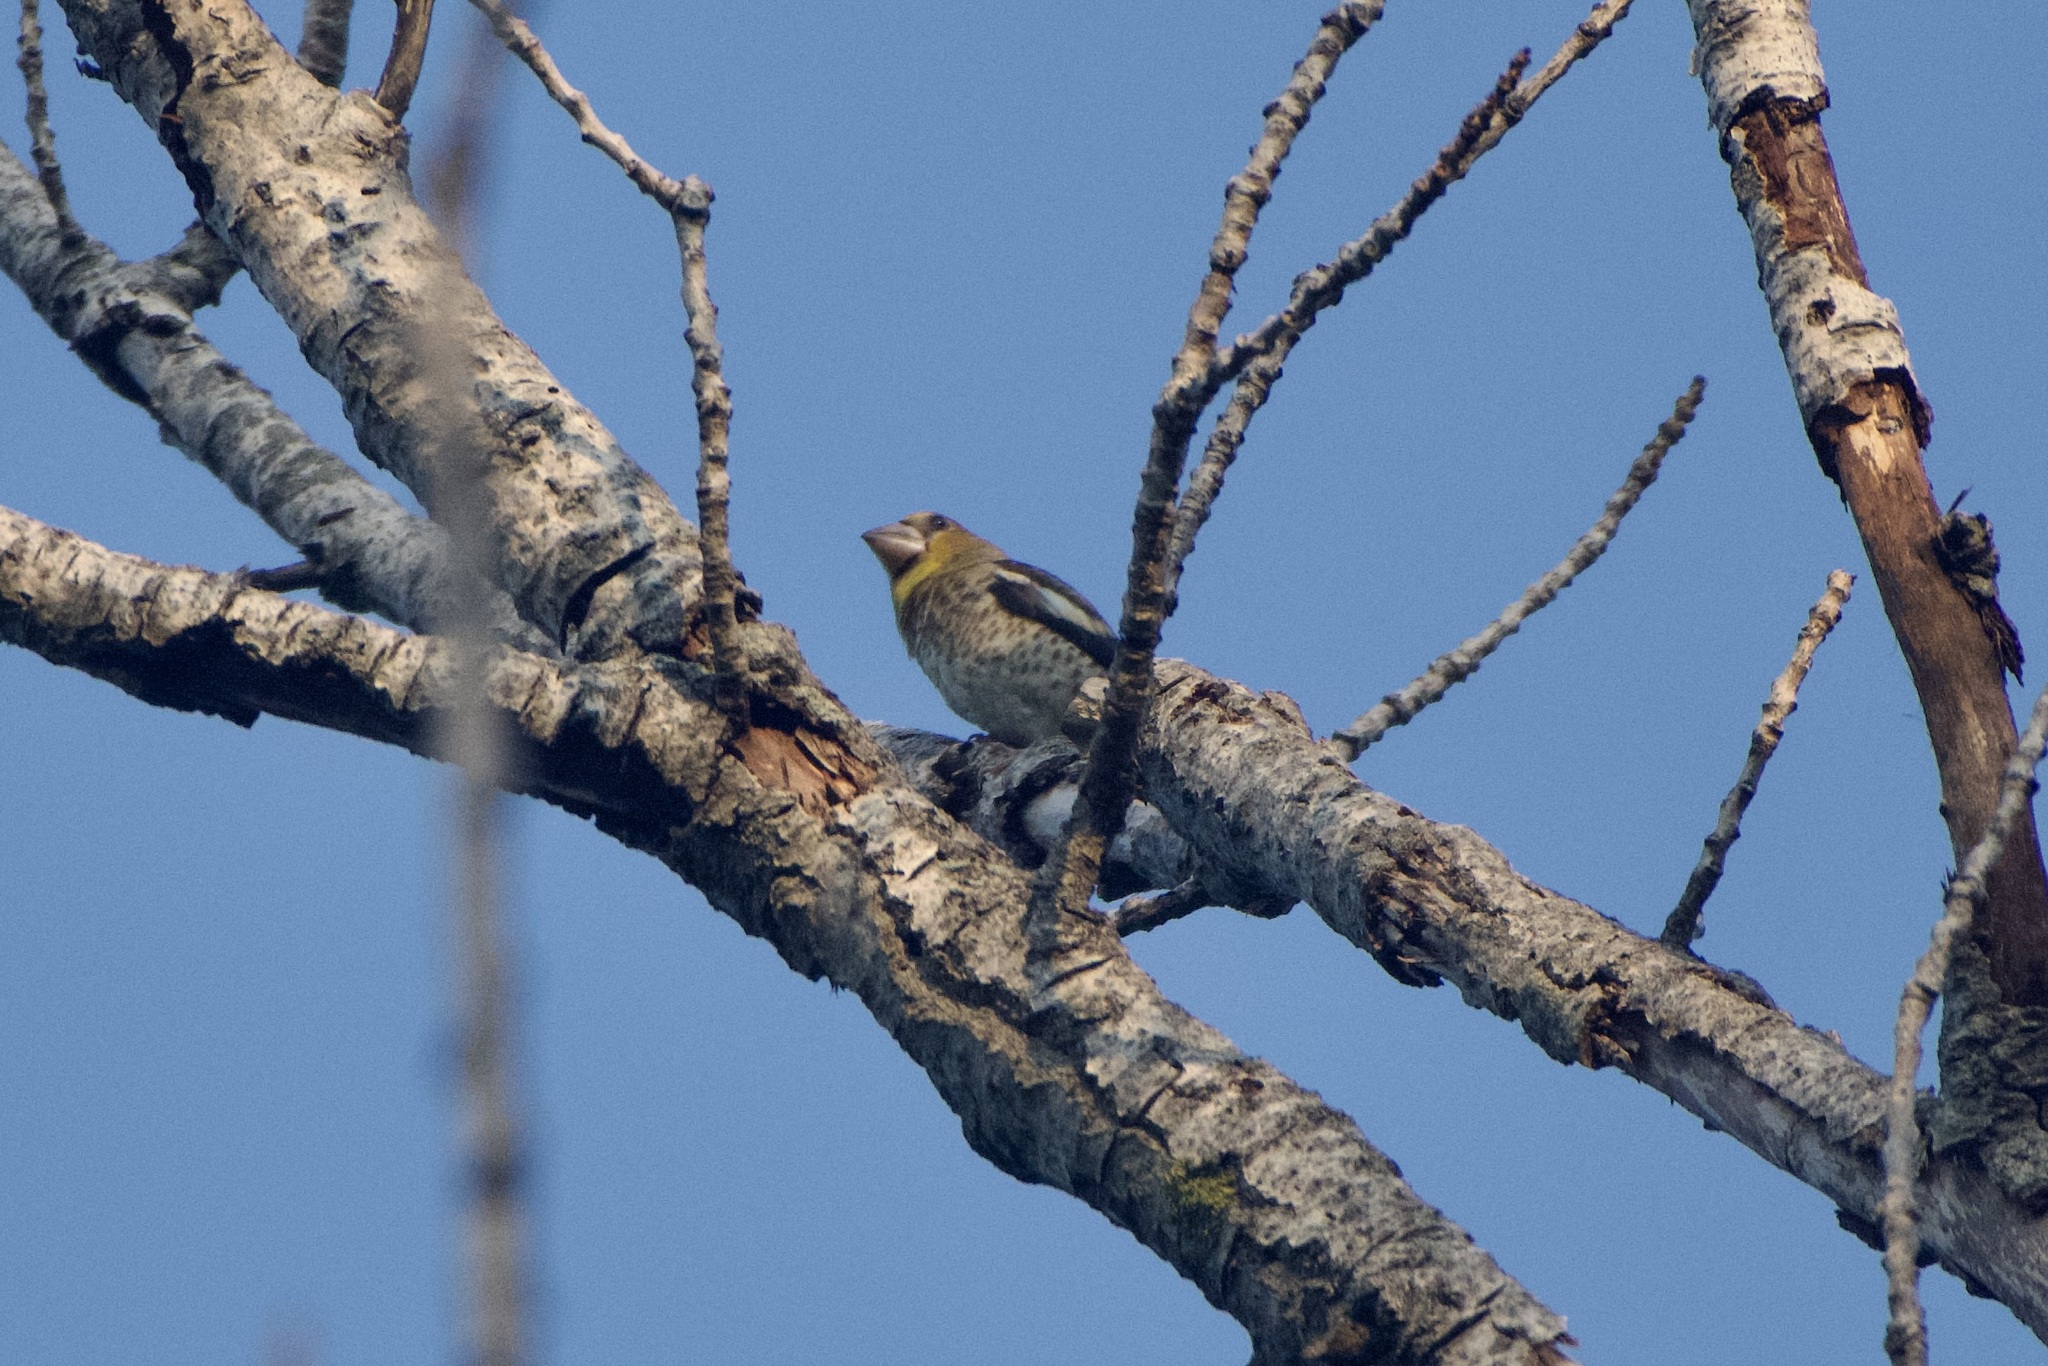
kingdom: Animalia
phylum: Chordata
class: Aves
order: Passeriformes
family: Fringillidae
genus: Coccothraustes
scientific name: Coccothraustes coccothraustes
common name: Hawfinch
